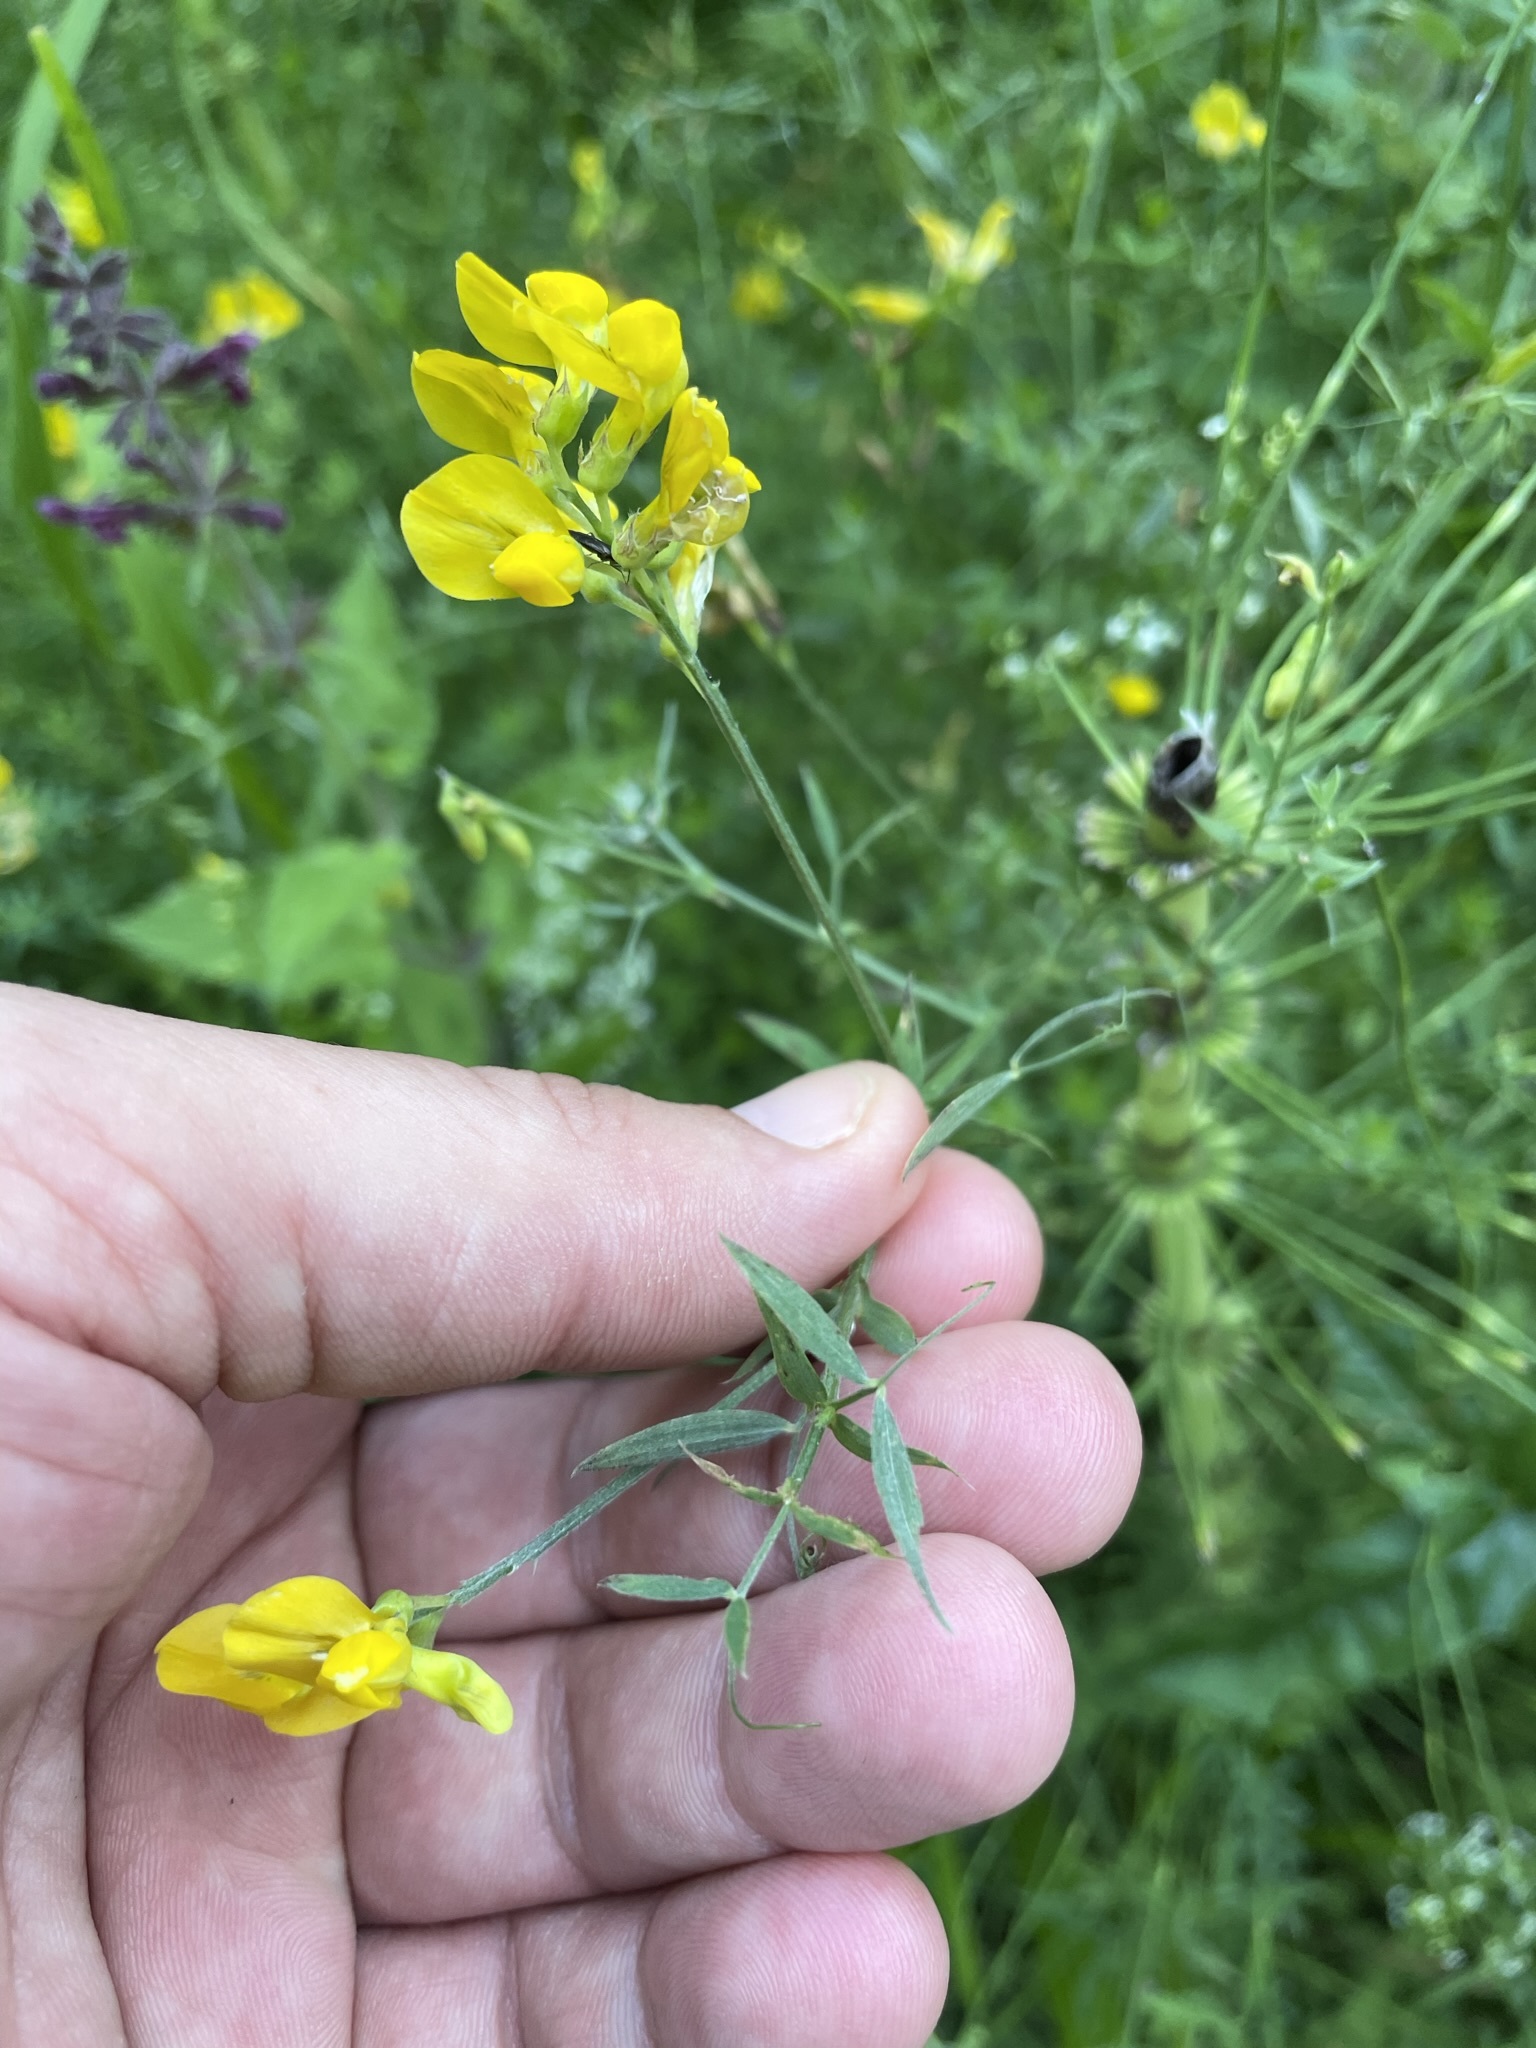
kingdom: Plantae
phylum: Tracheophyta
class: Magnoliopsida
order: Fabales
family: Fabaceae
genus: Lathyrus
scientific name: Lathyrus pratensis
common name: Meadow vetchling
